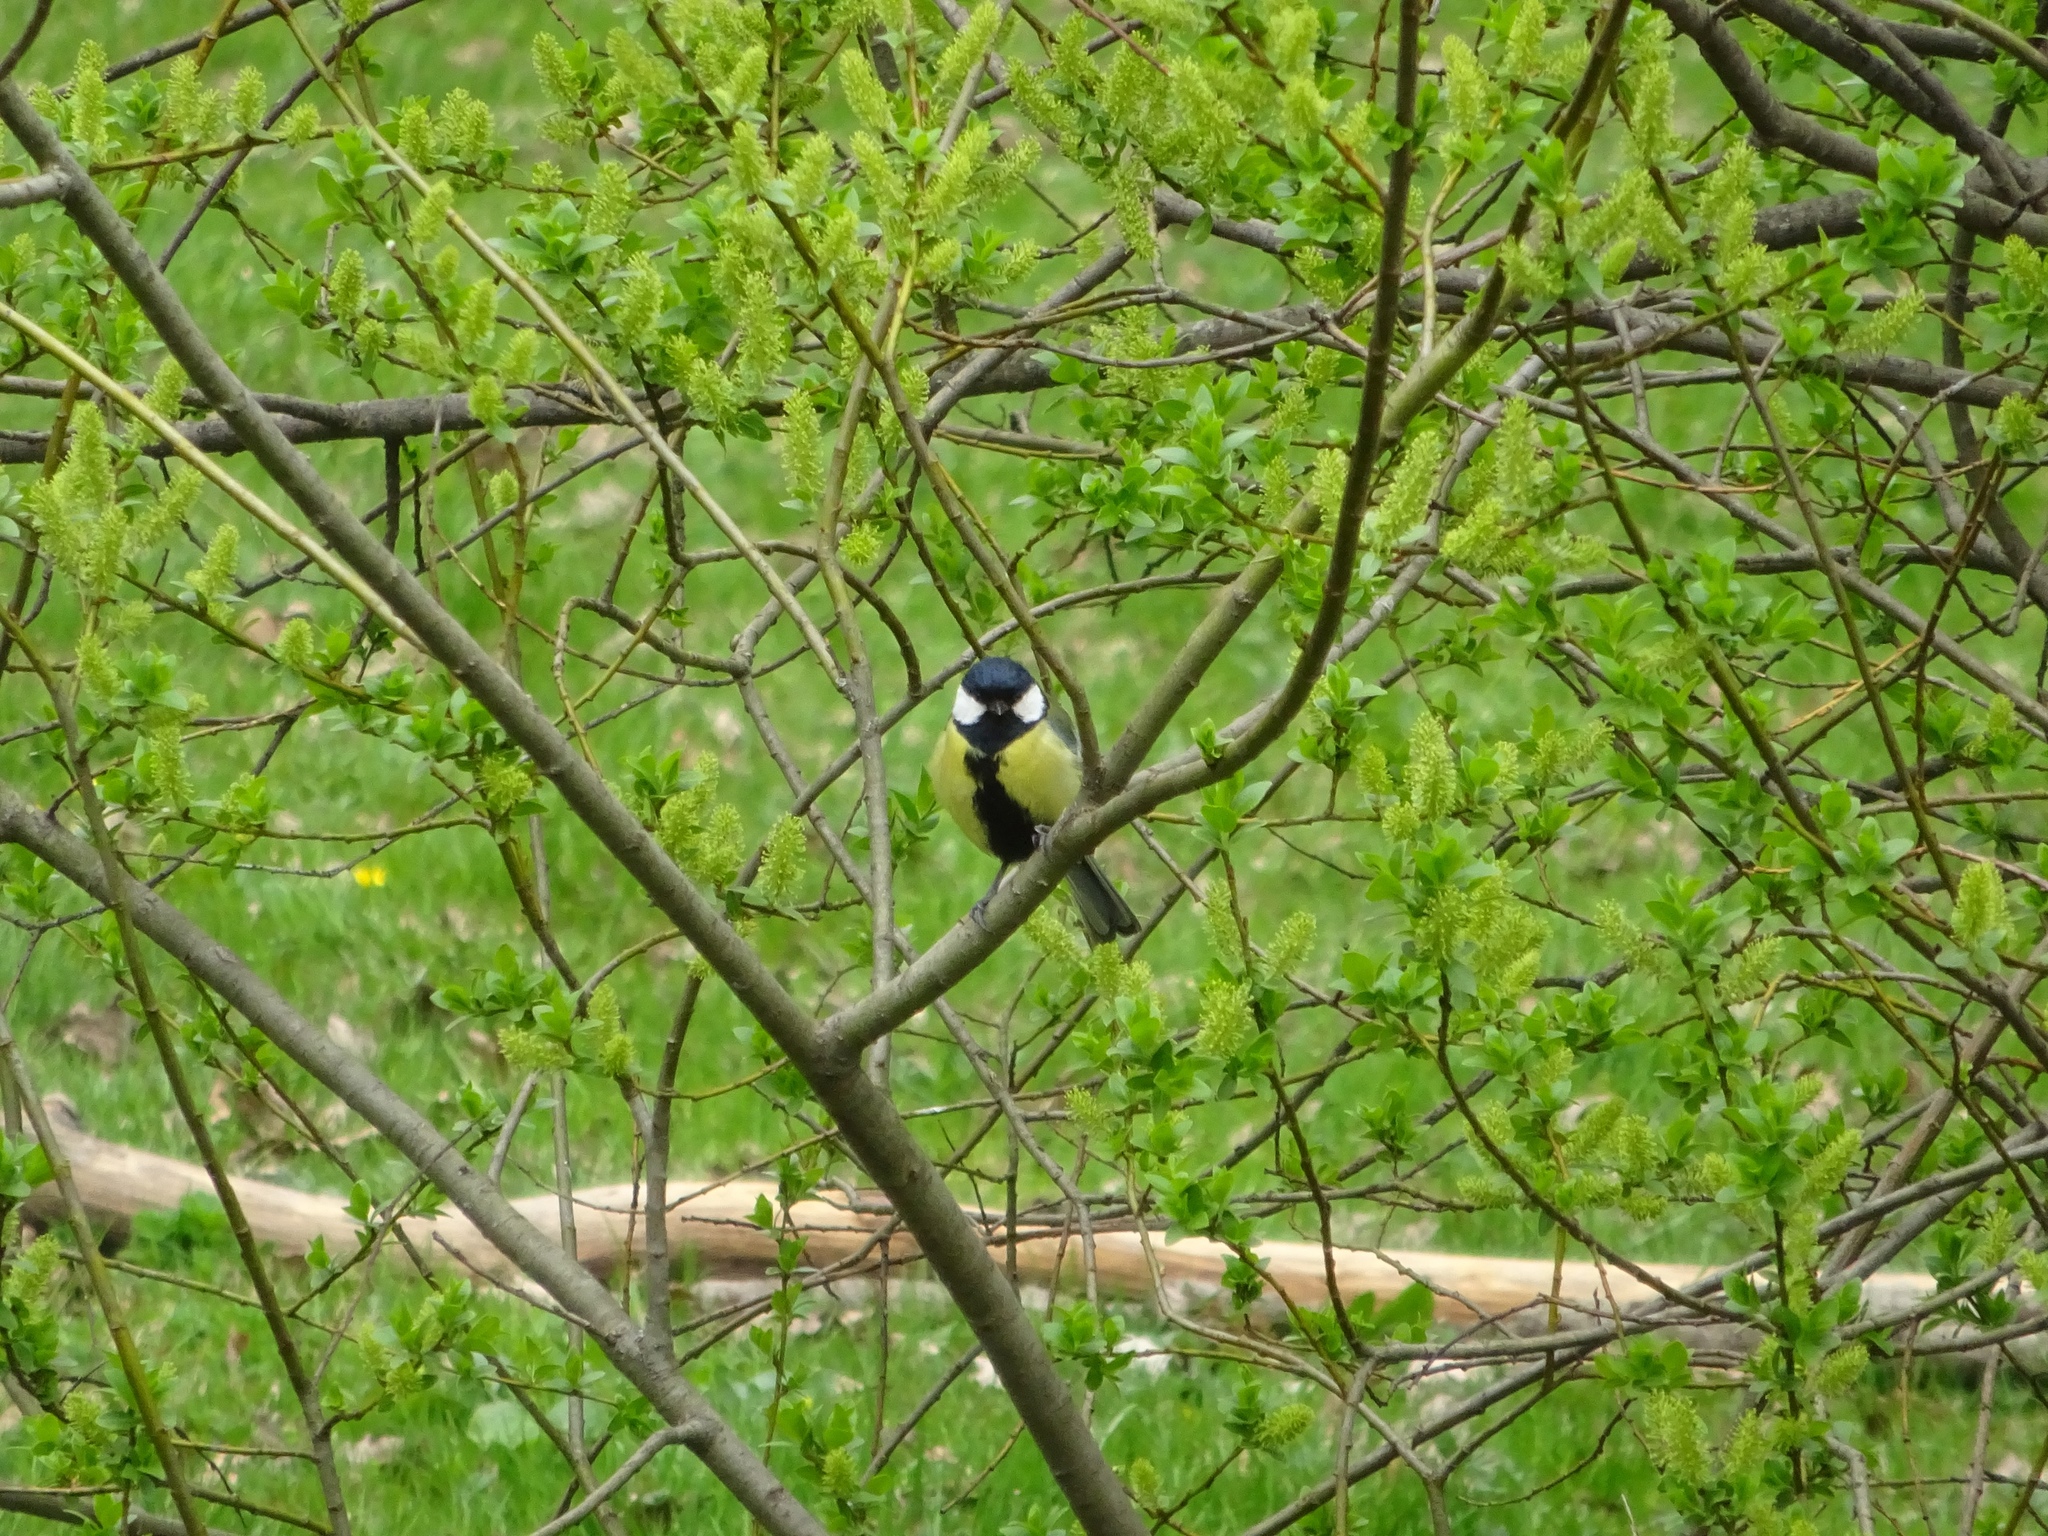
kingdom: Animalia
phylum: Chordata
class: Aves
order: Passeriformes
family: Paridae
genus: Parus
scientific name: Parus major
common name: Great tit
